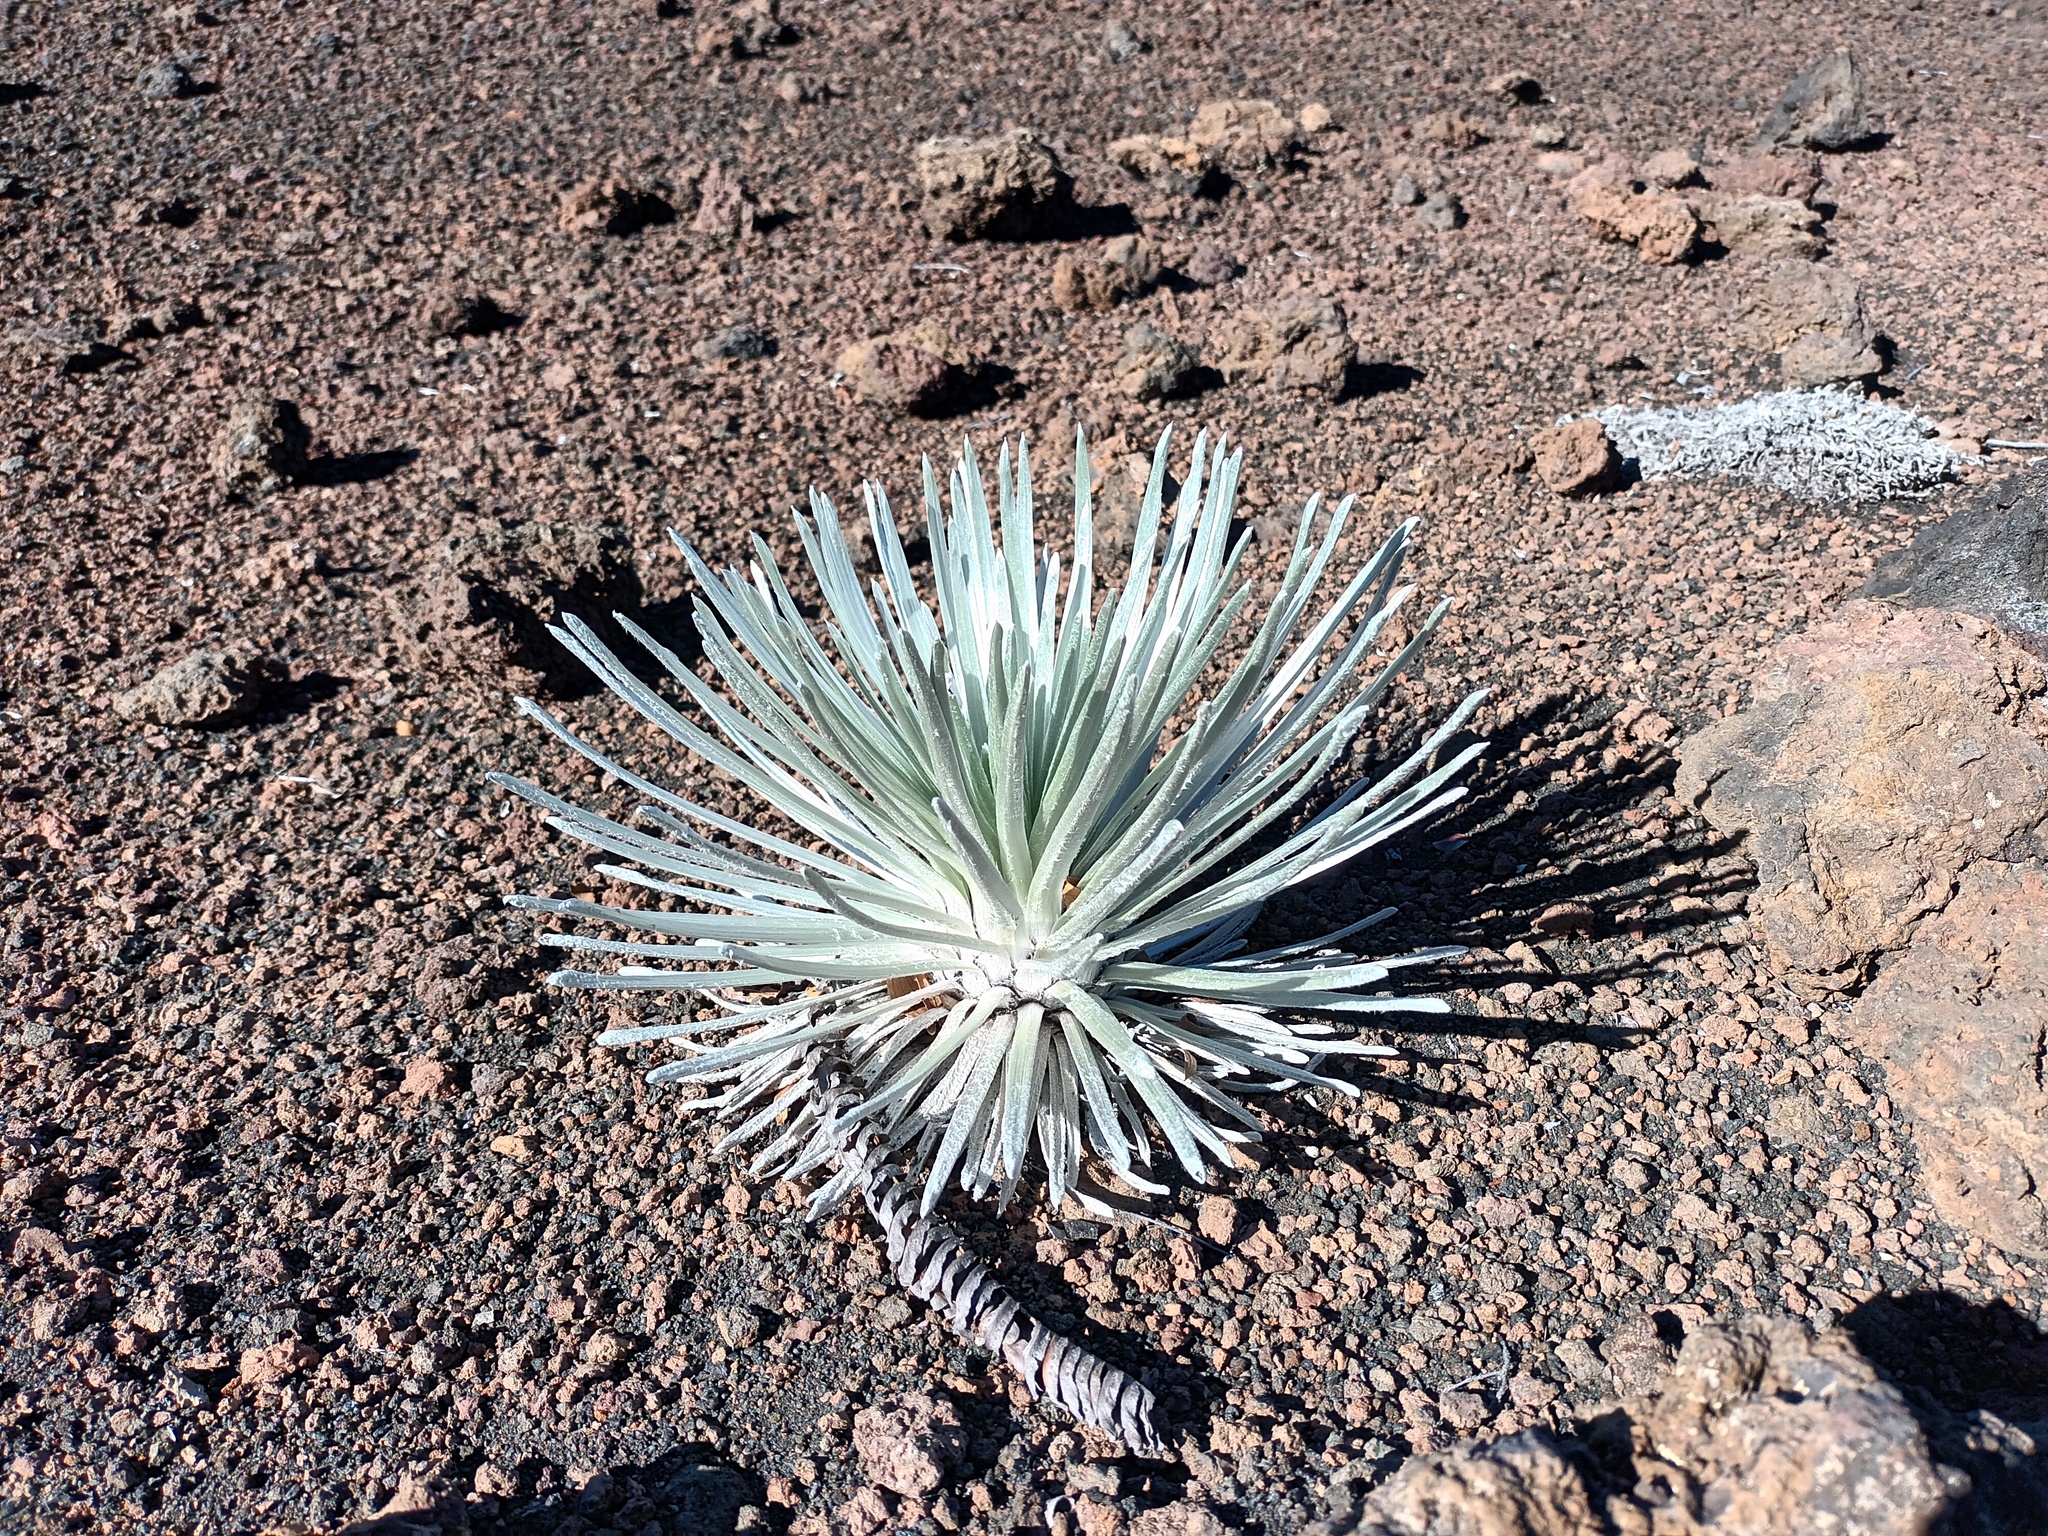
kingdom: Plantae
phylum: Tracheophyta
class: Magnoliopsida
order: Asterales
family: Asteraceae
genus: Argyroxiphium
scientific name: Argyroxiphium sandwicense
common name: Silversword
